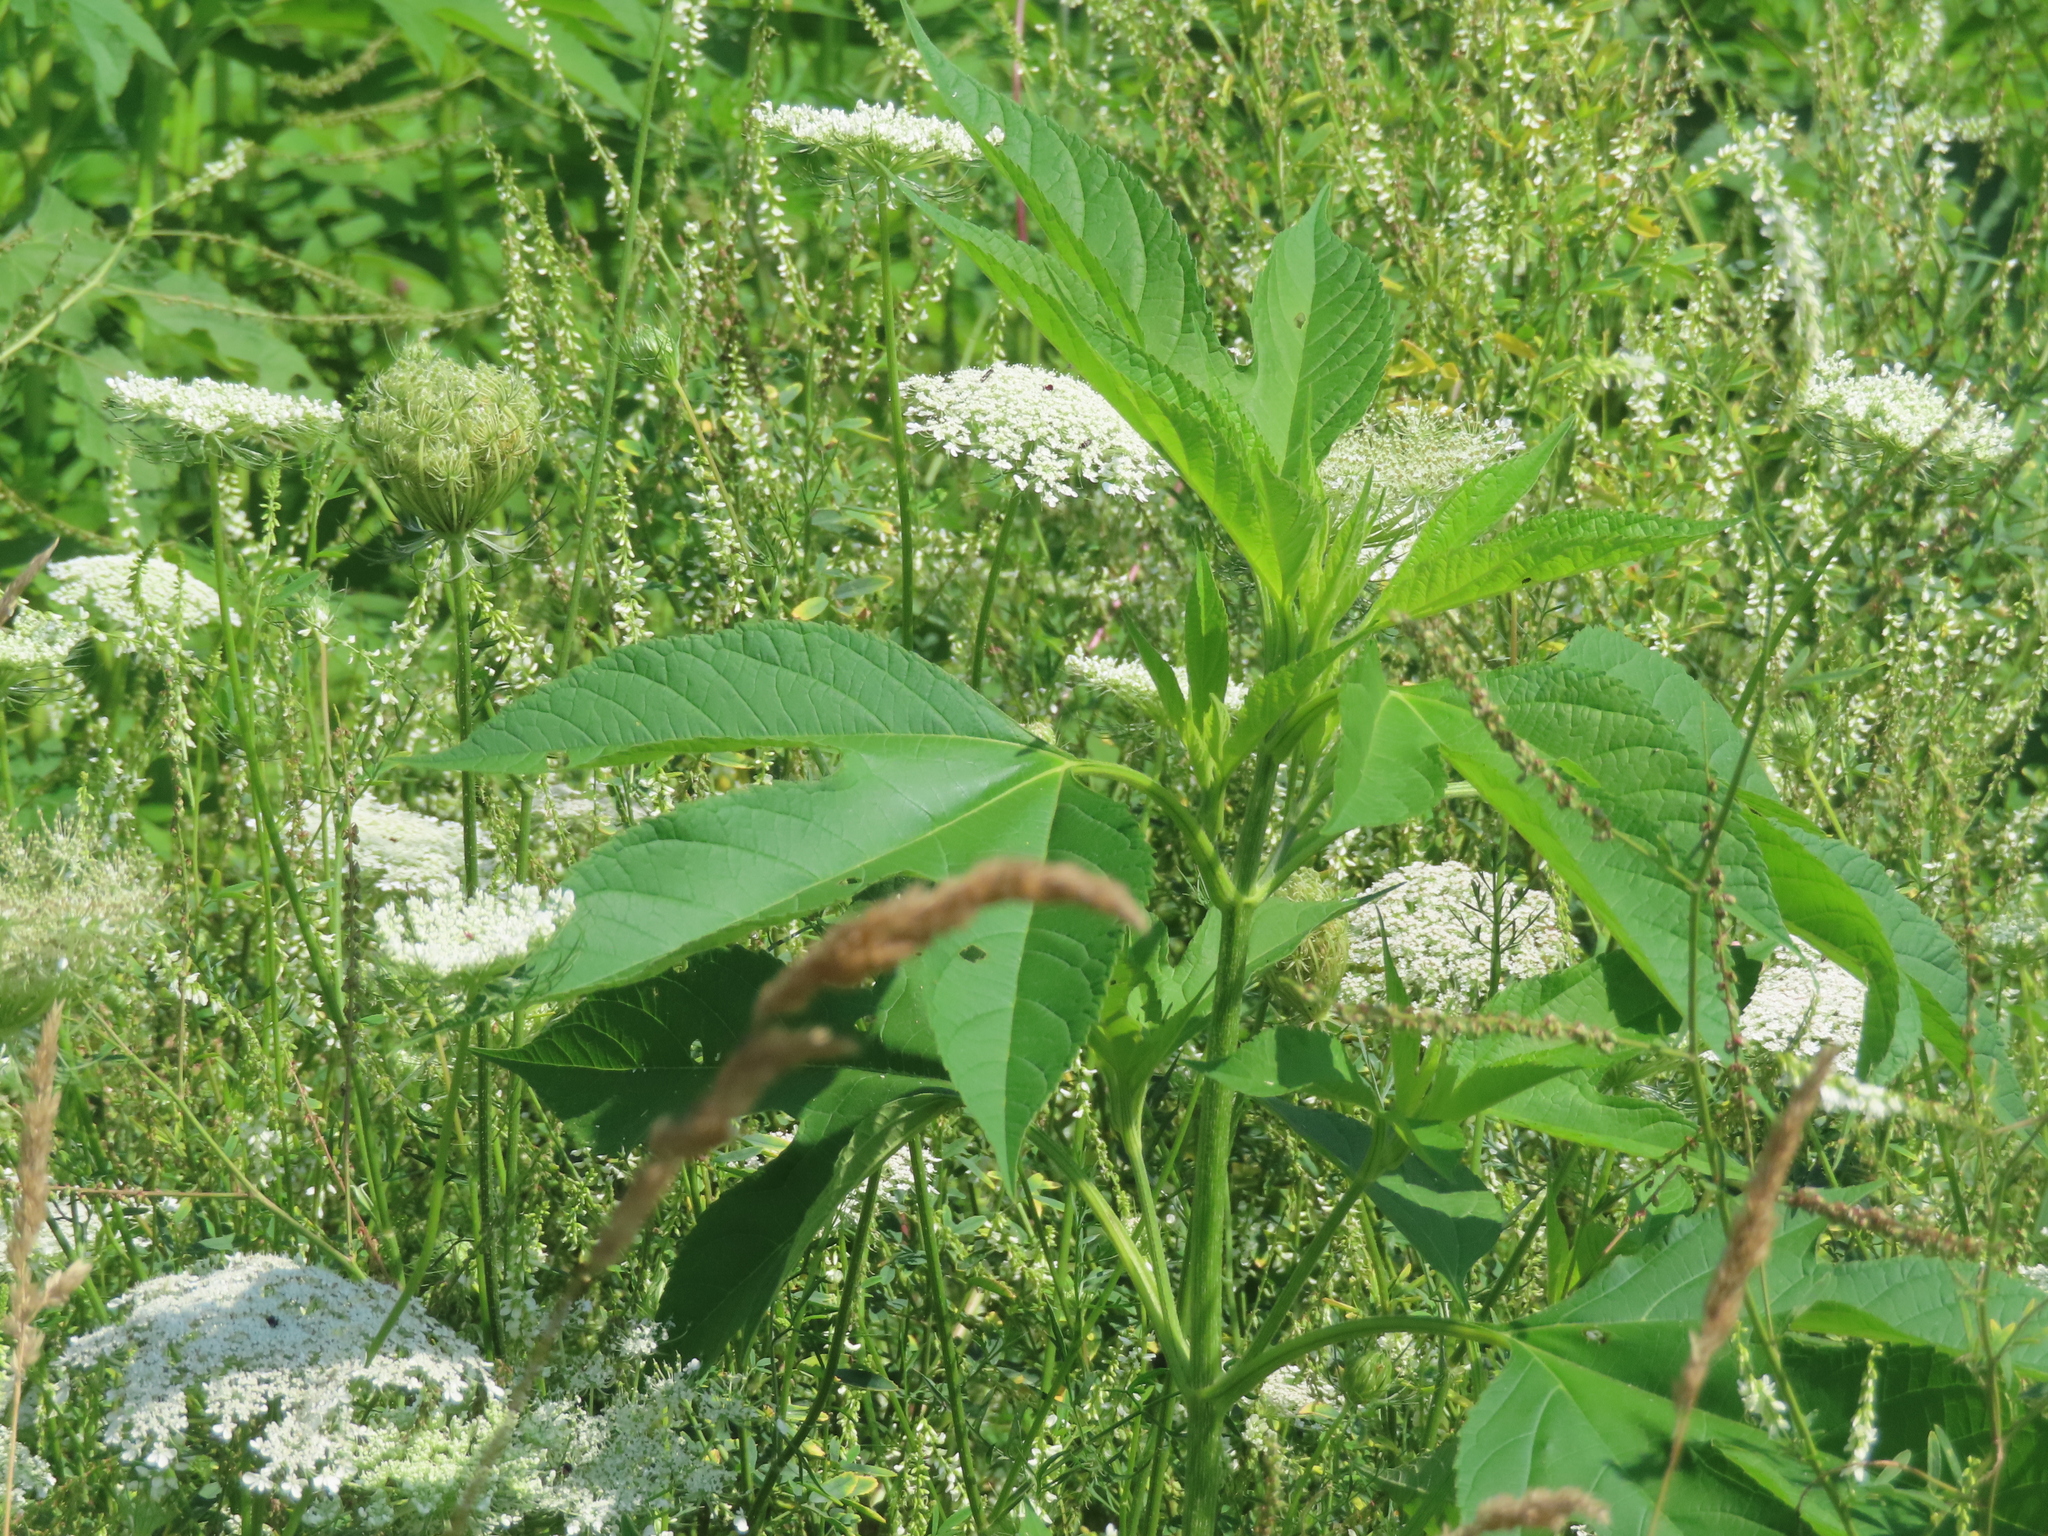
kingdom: Plantae
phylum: Tracheophyta
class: Magnoliopsida
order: Apiales
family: Apiaceae
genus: Daucus
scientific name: Daucus carota
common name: Wild carrot
